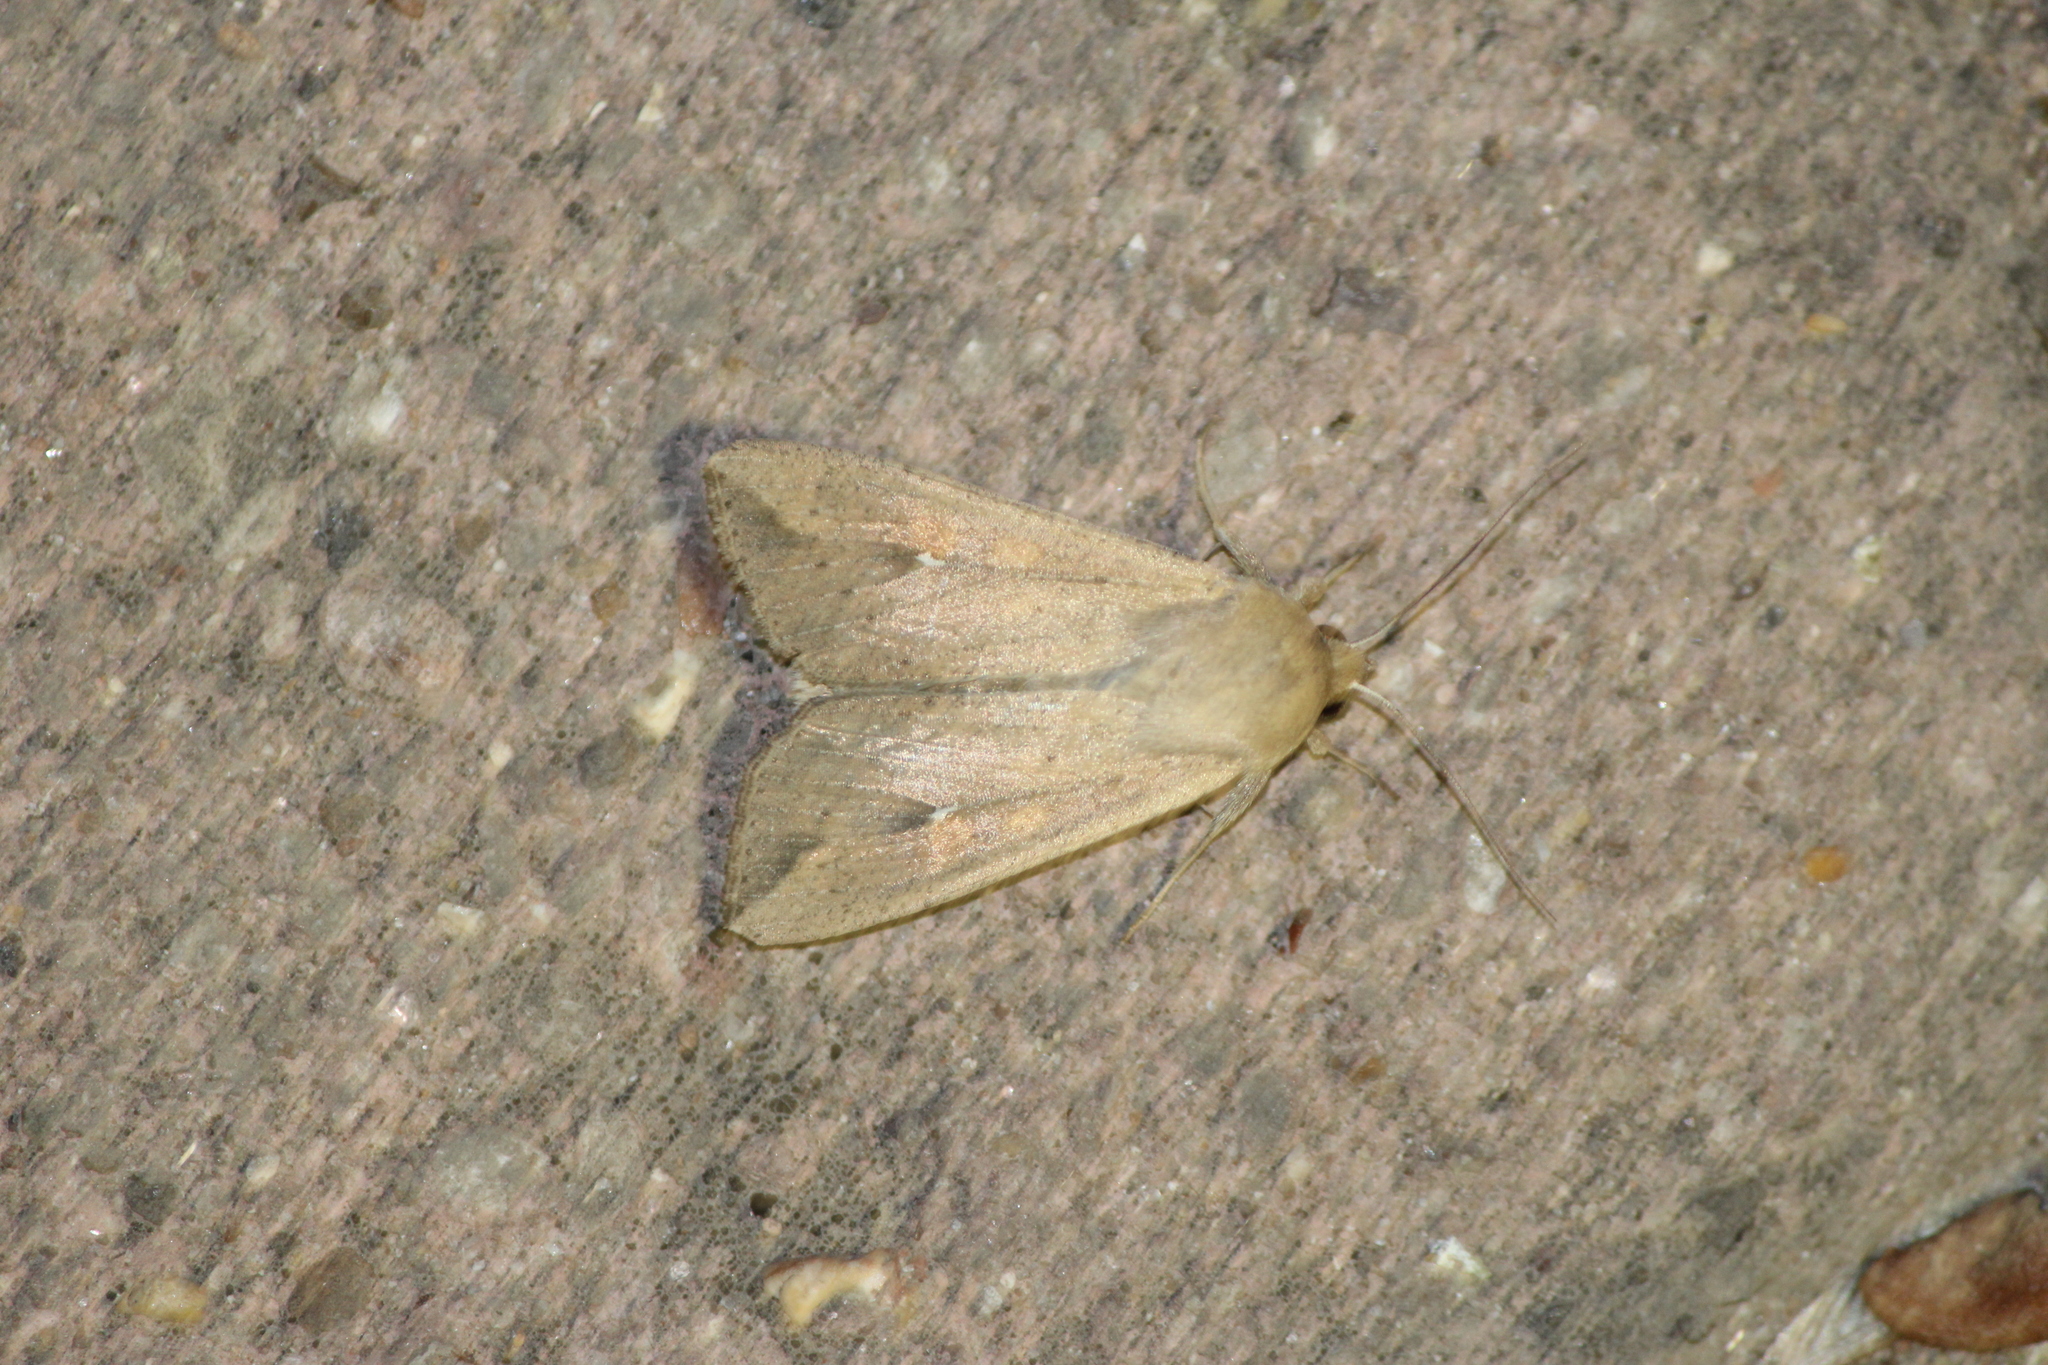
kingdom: Animalia
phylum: Arthropoda
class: Insecta
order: Lepidoptera
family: Noctuidae
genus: Mythimna
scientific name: Mythimna unipuncta
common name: White-speck
